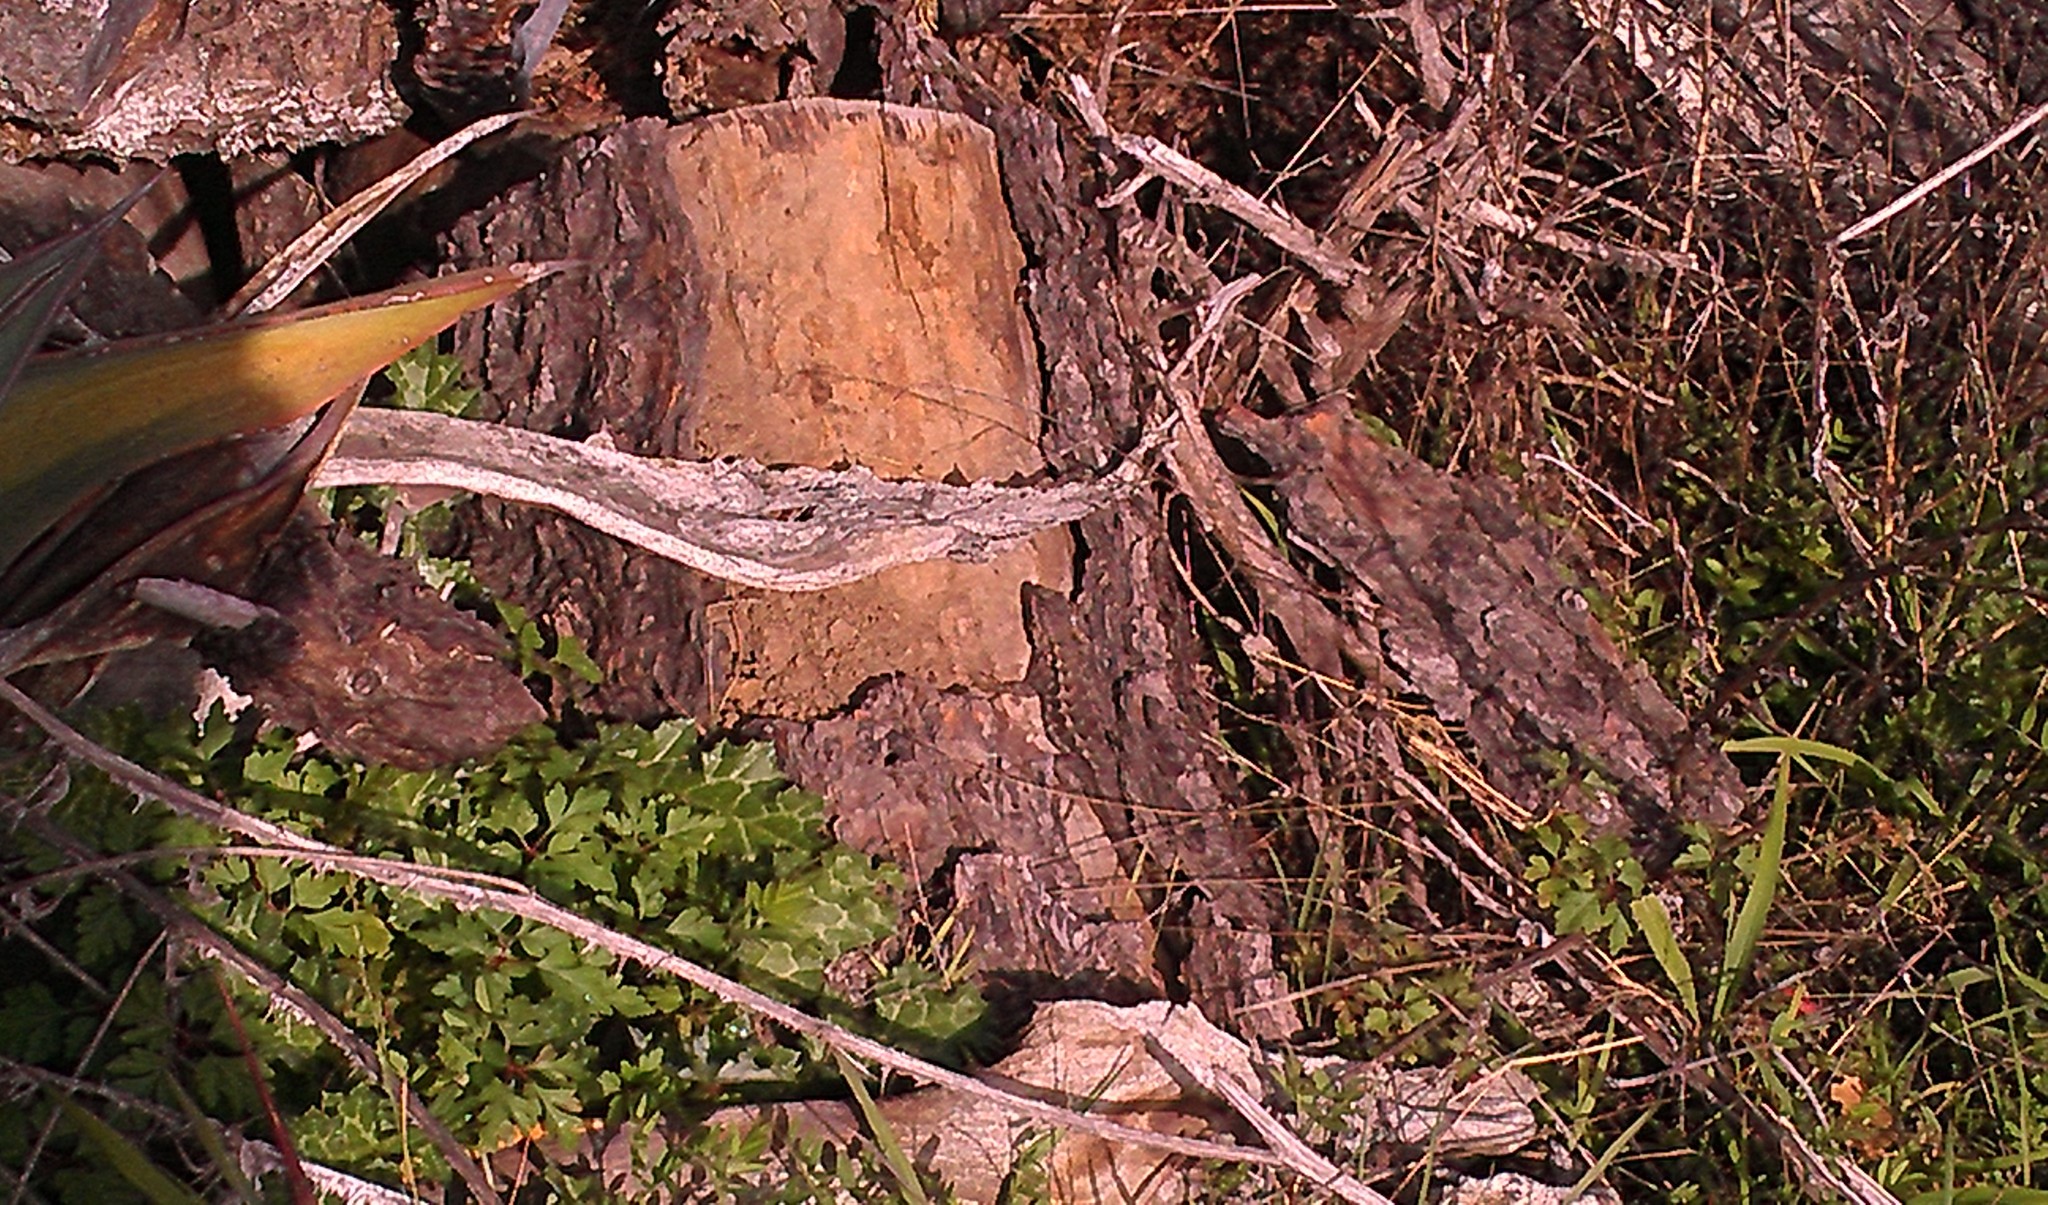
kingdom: Animalia
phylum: Chordata
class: Squamata
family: Phrynosomatidae
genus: Sceloporus
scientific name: Sceloporus occidentalis
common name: Western fence lizard
